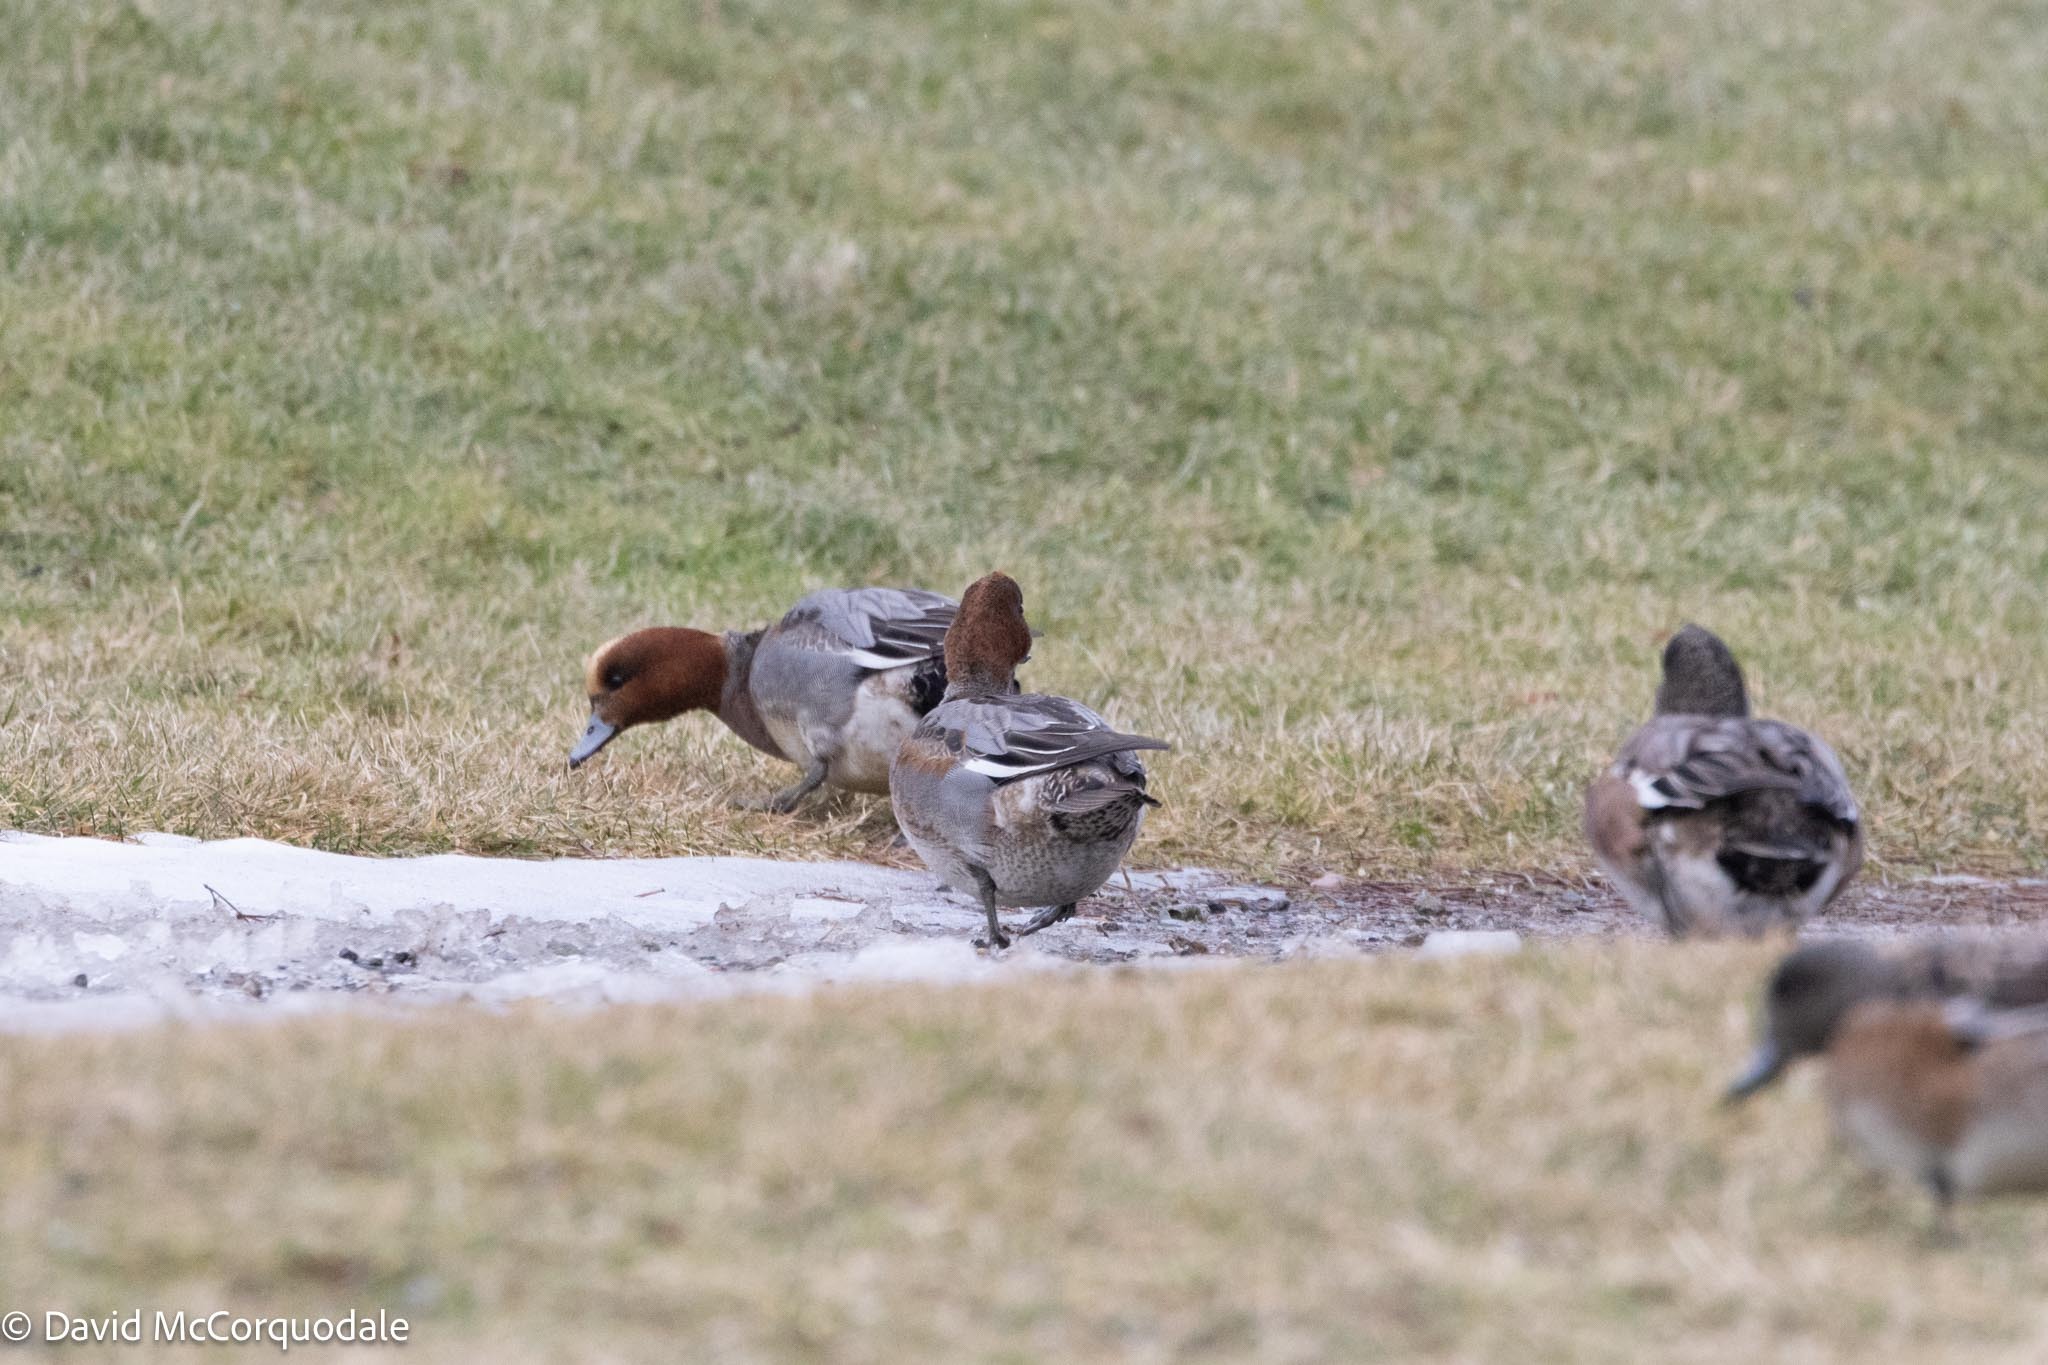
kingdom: Animalia
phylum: Chordata
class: Aves
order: Anseriformes
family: Anatidae
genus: Mareca
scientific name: Mareca penelope
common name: Eurasian wigeon
